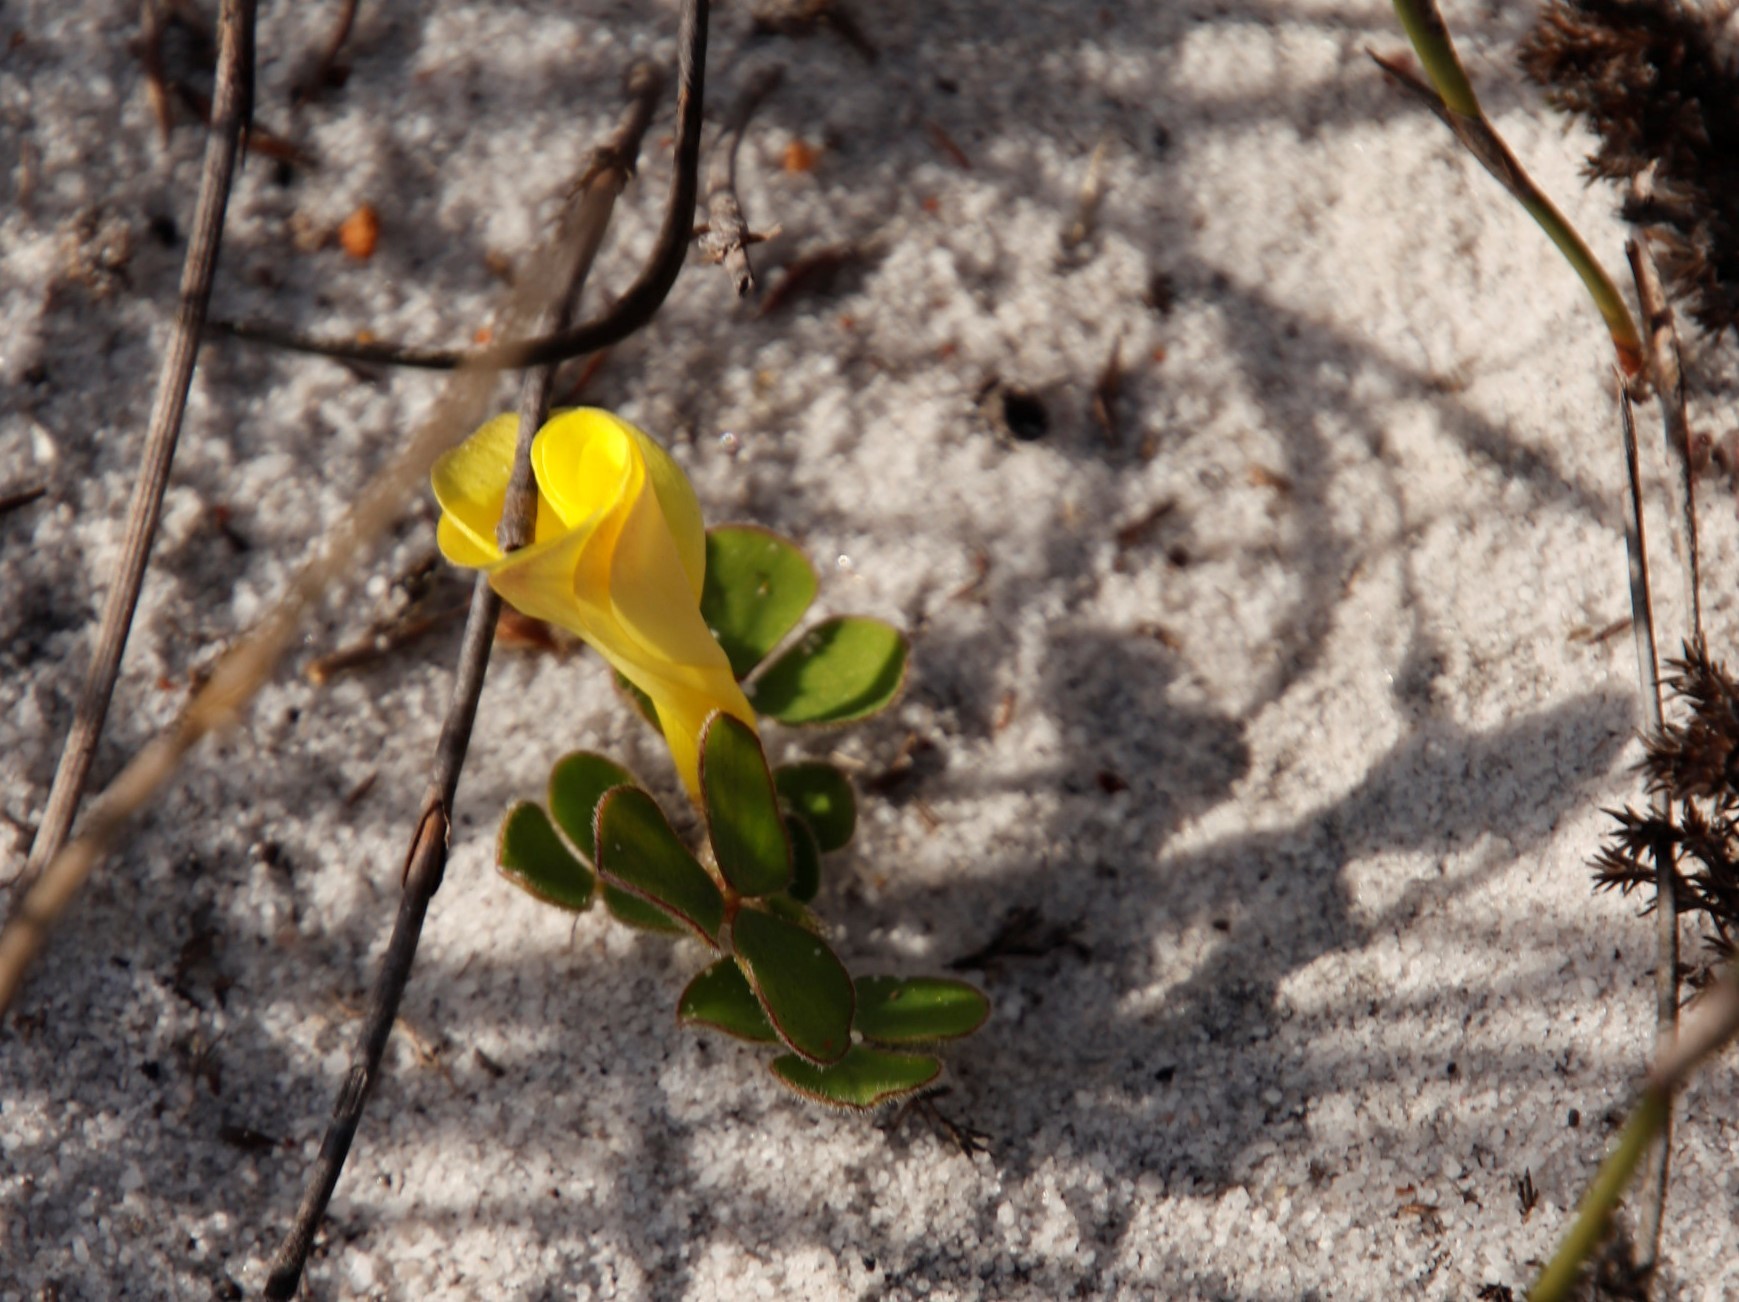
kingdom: Plantae
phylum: Tracheophyta
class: Magnoliopsida
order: Oxalidales
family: Oxalidaceae
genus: Oxalis
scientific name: Oxalis luteola
